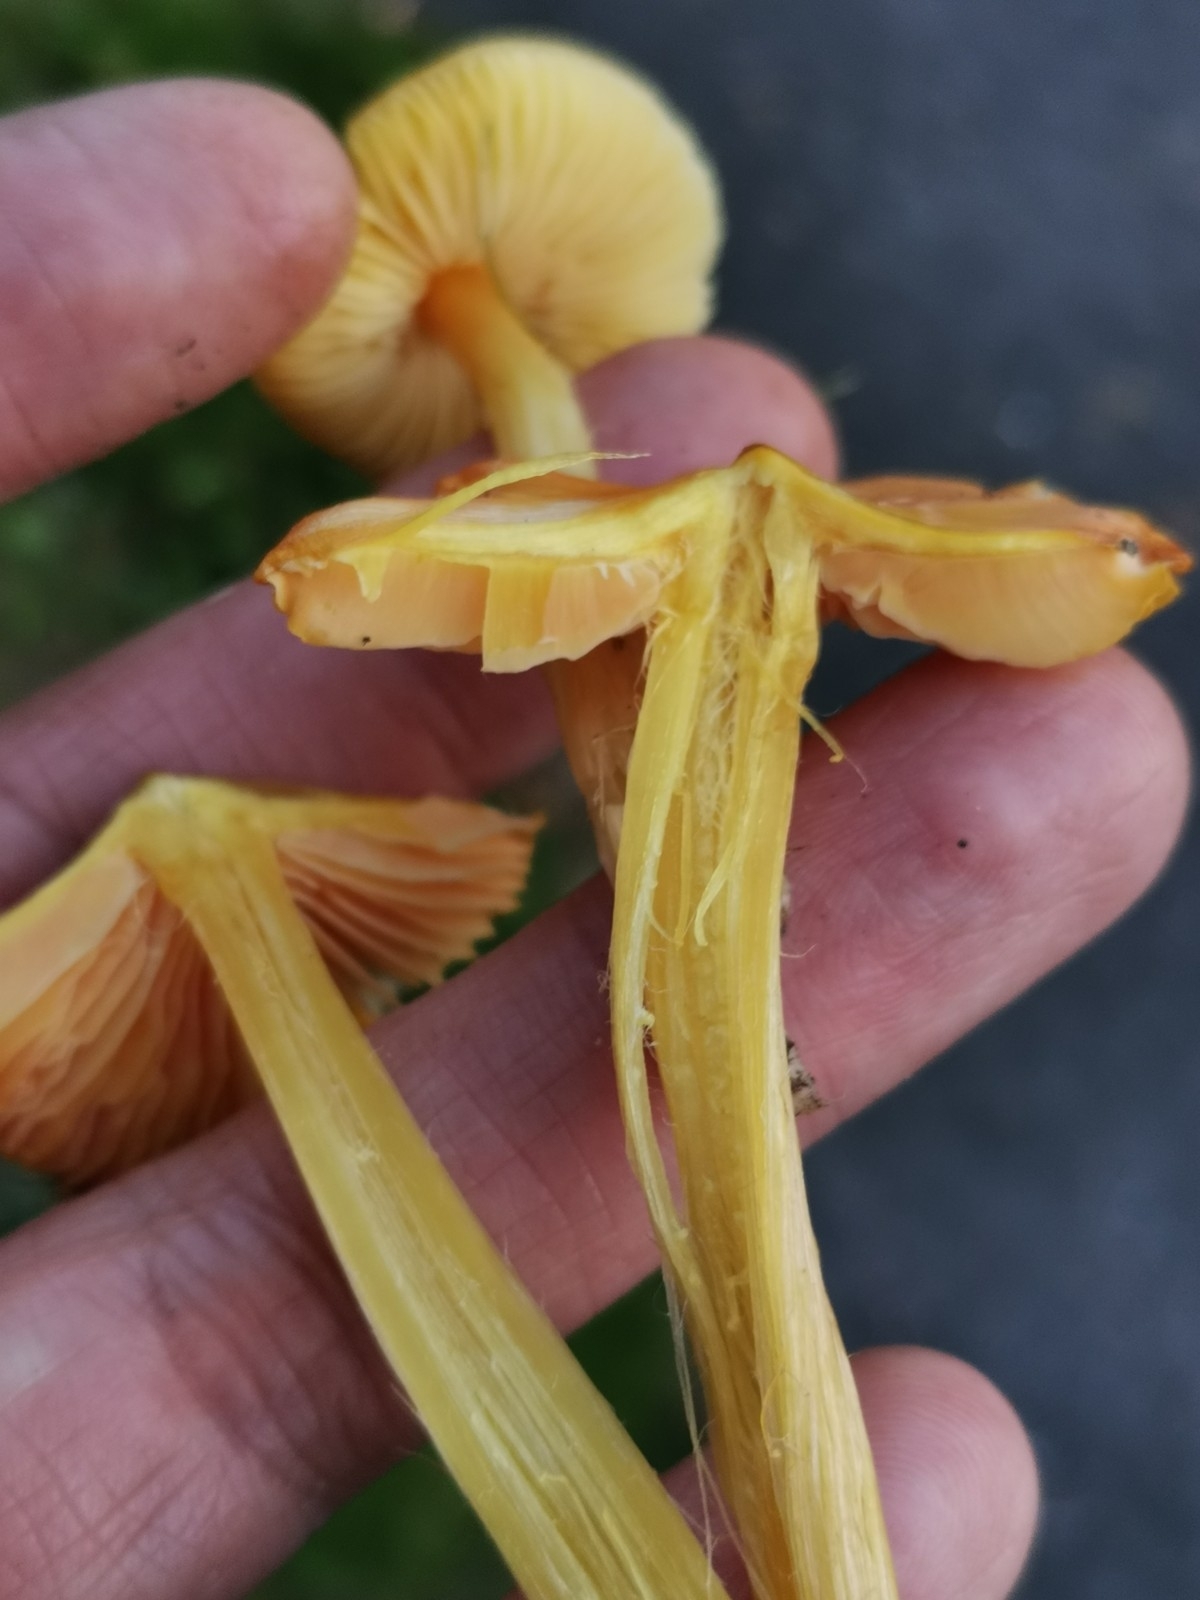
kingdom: Fungi
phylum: Basidiomycota
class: Agaricomycetes
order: Agaricales
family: Hygrophoraceae
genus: Hygrocybe
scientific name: Hygrocybe acutoconica
